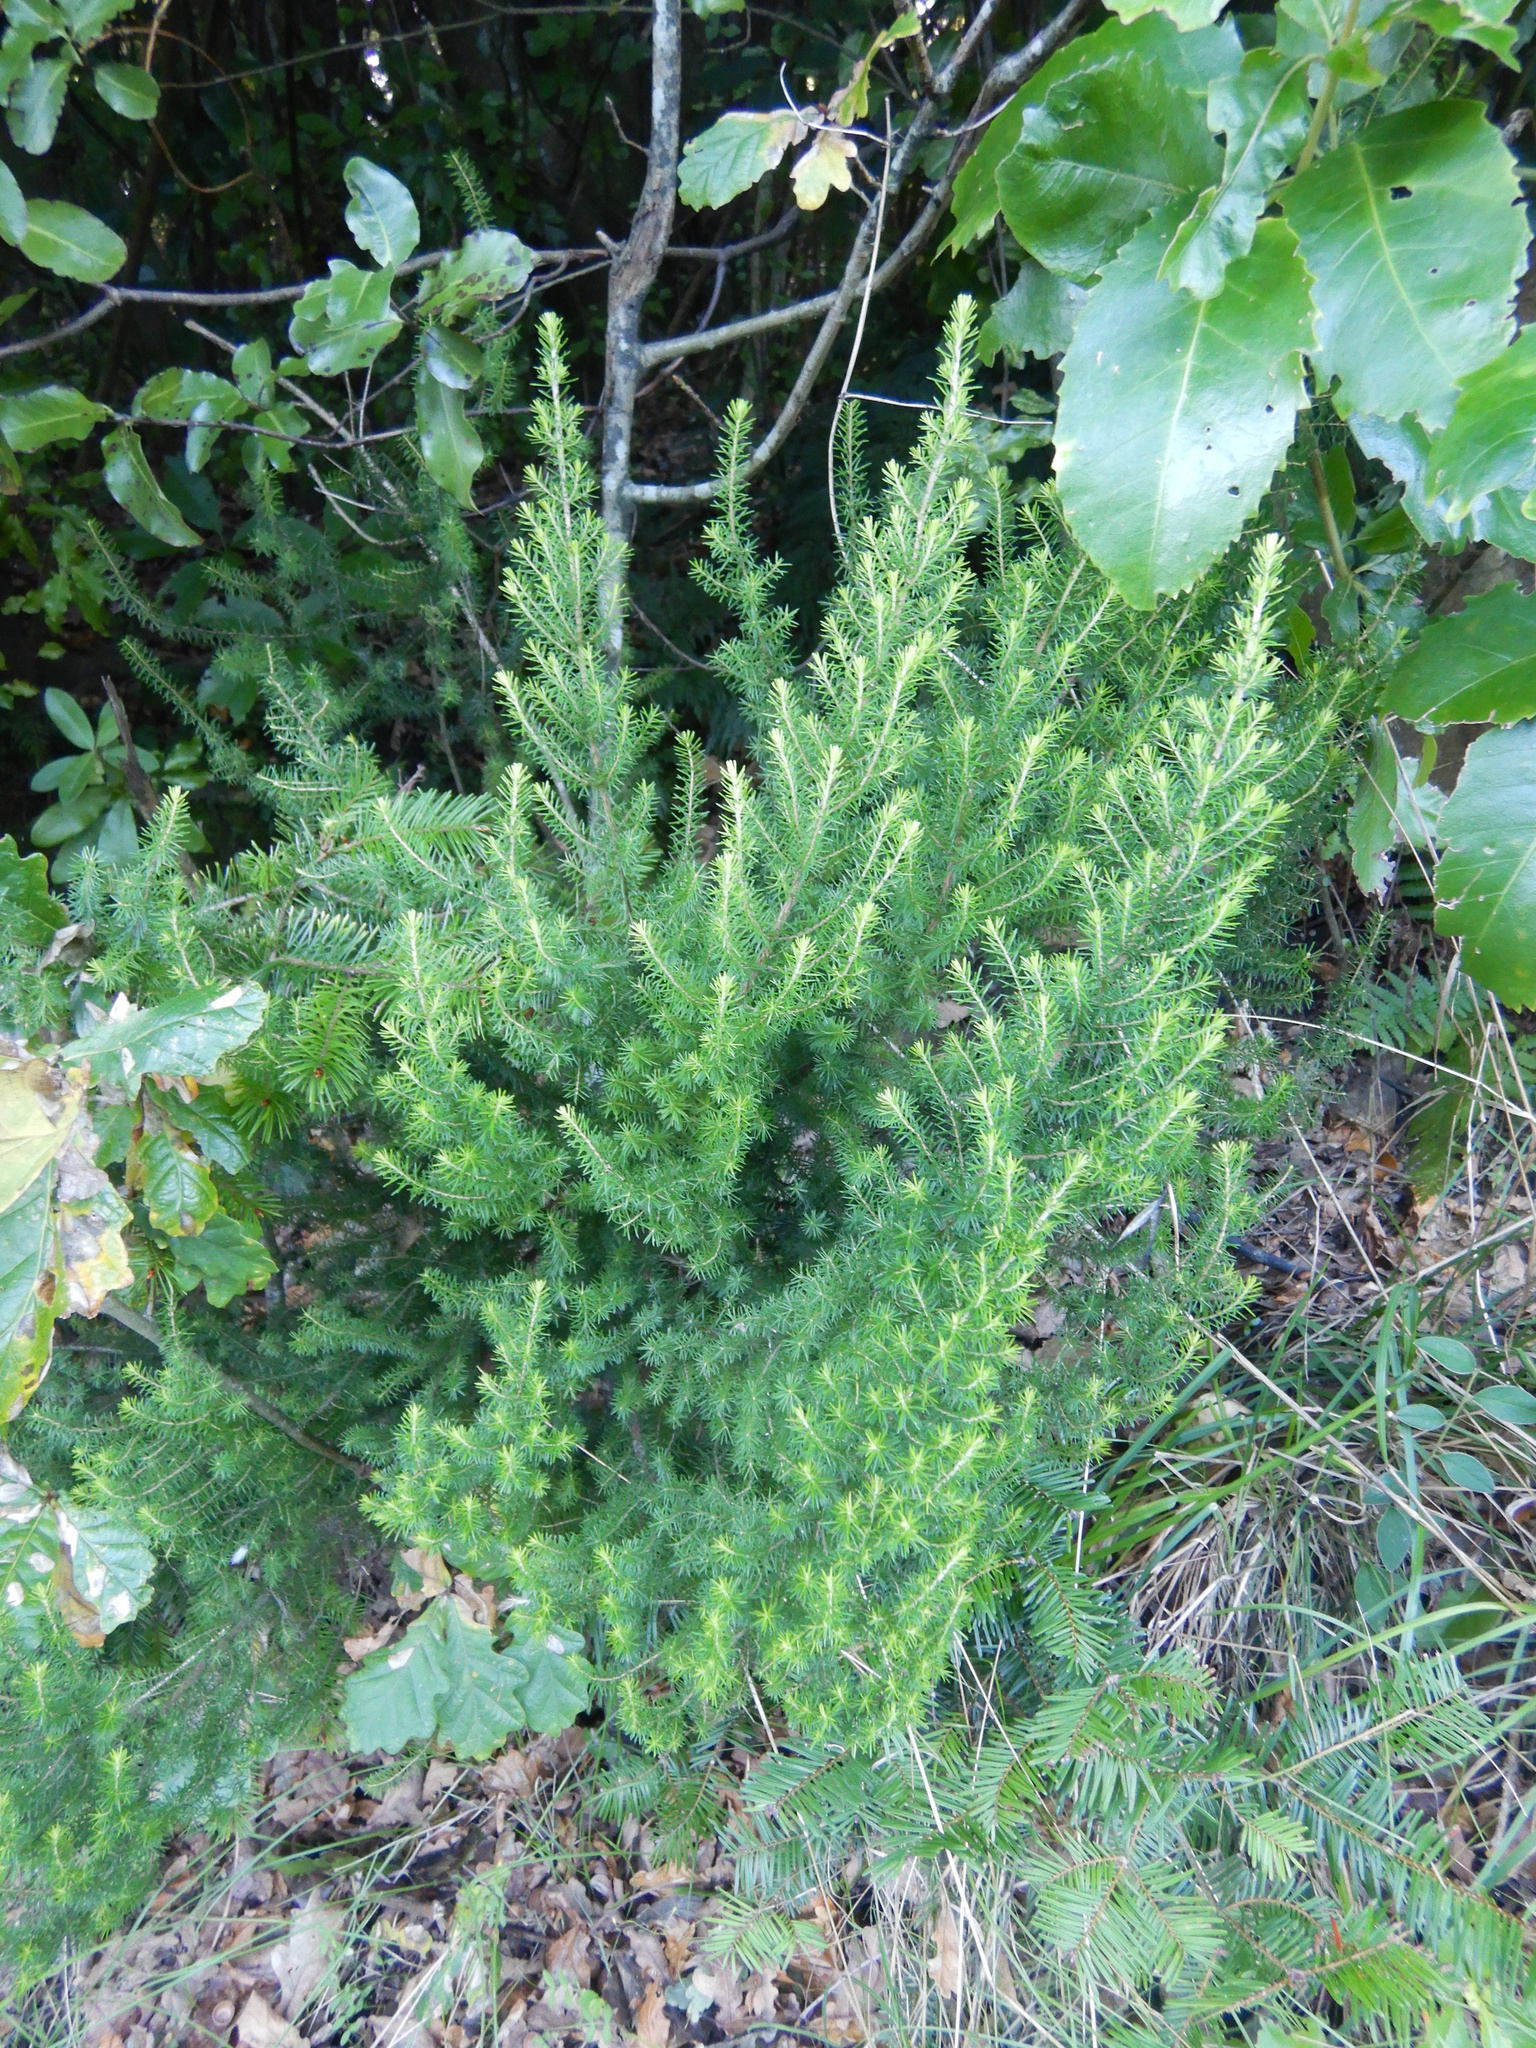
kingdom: Plantae
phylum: Tracheophyta
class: Magnoliopsida
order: Ericales
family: Ericaceae
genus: Erica
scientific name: Erica lusitanica
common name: Spanish heath
